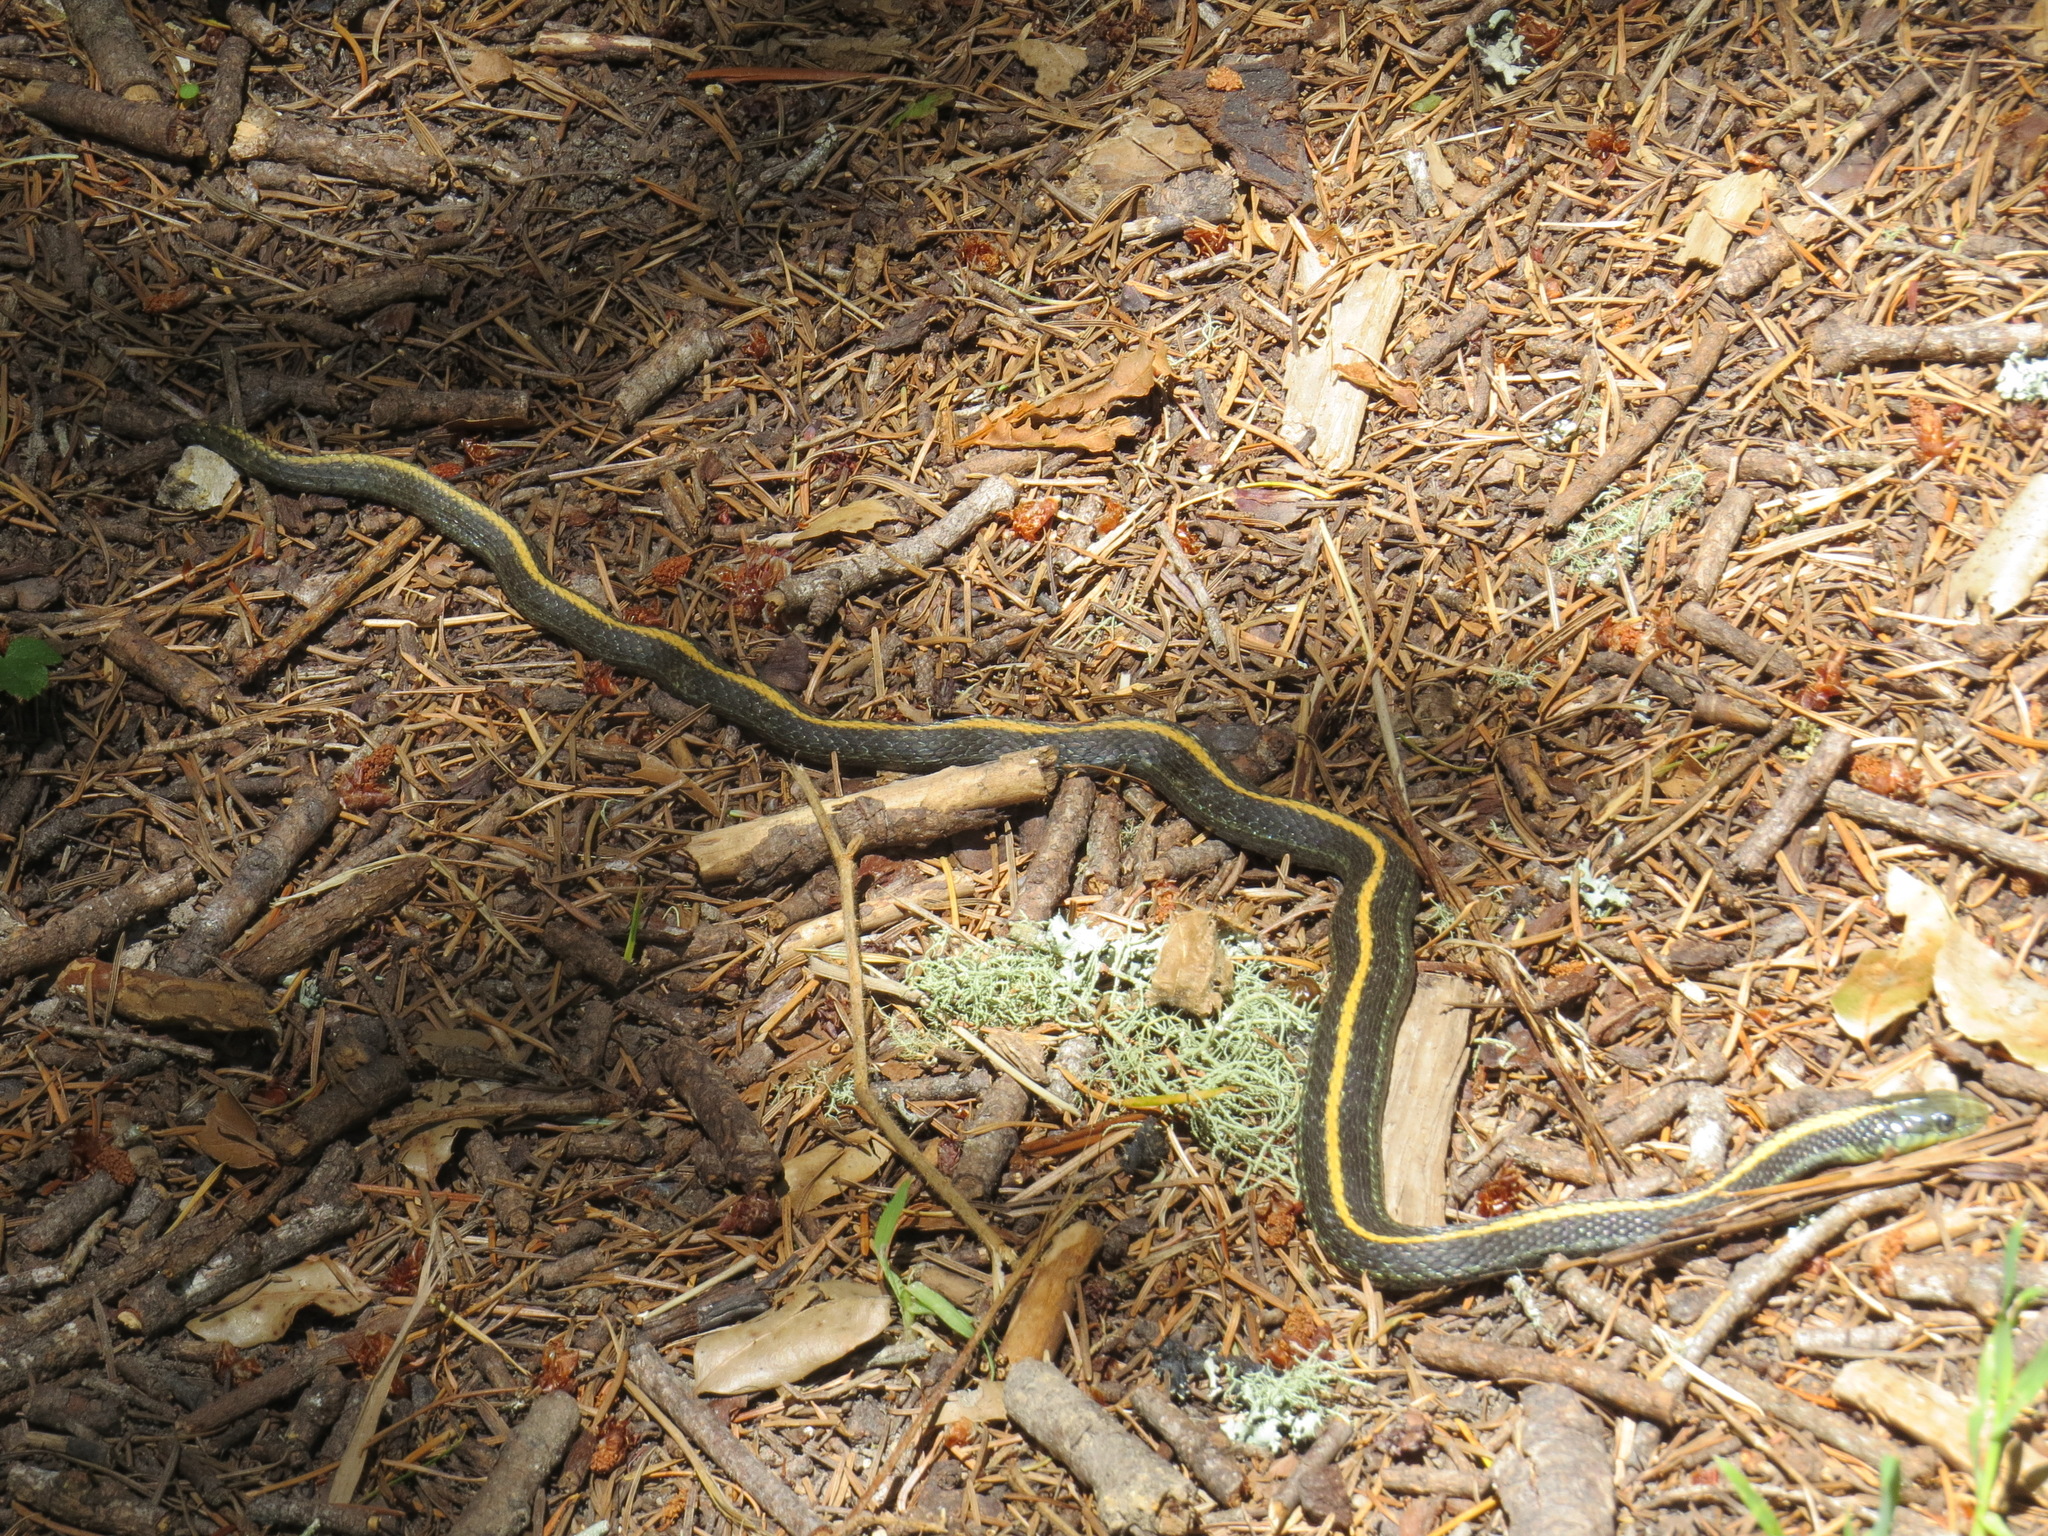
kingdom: Animalia
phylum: Chordata
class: Squamata
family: Colubridae
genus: Thamnophis
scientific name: Thamnophis atratus
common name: Pacific coast aquatic garter snake
